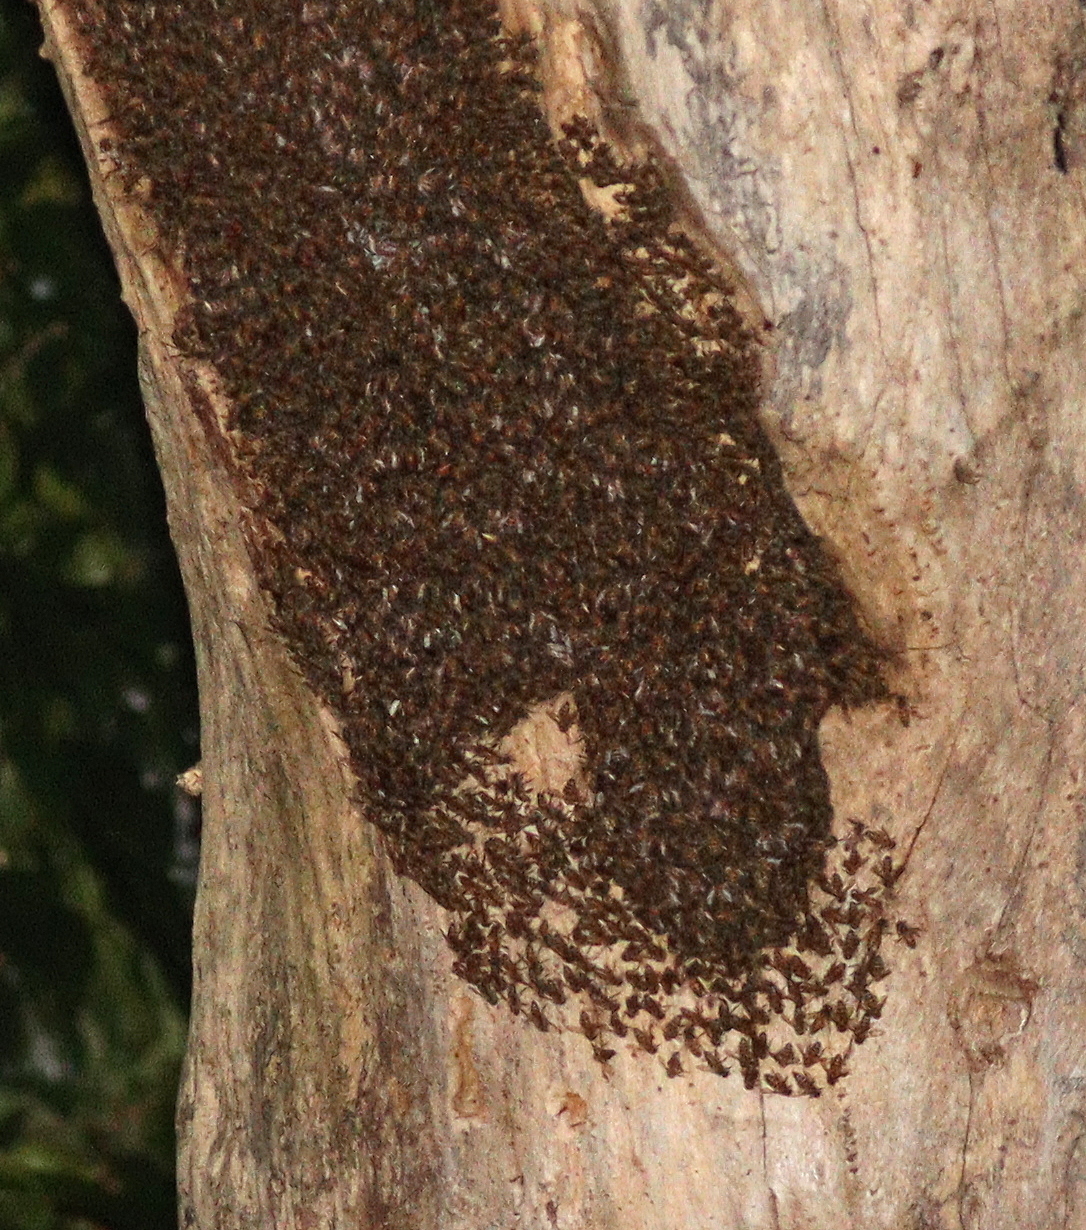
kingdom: Animalia
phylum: Arthropoda
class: Insecta
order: Hymenoptera
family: Apidae
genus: Apis
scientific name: Apis mellifera
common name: Honey bee
